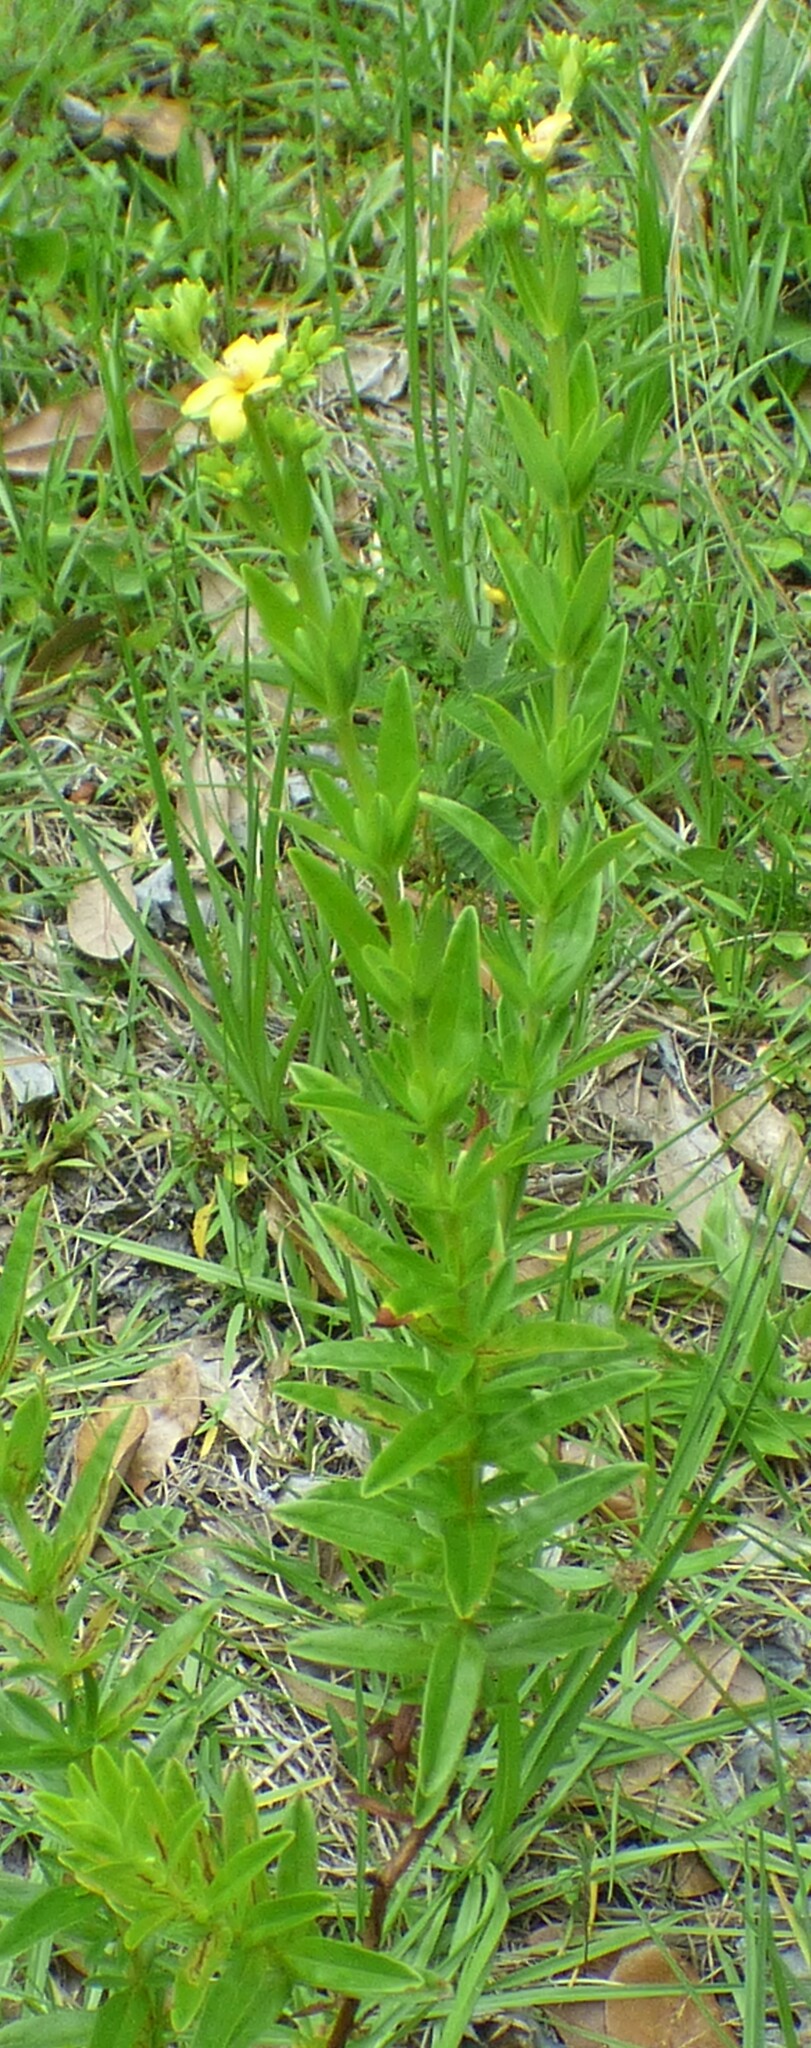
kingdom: Plantae
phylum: Tracheophyta
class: Magnoliopsida
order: Malpighiales
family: Hypericaceae
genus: Hypericum
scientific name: Hypericum cistifolium
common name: Round-pod st. john's-wort
